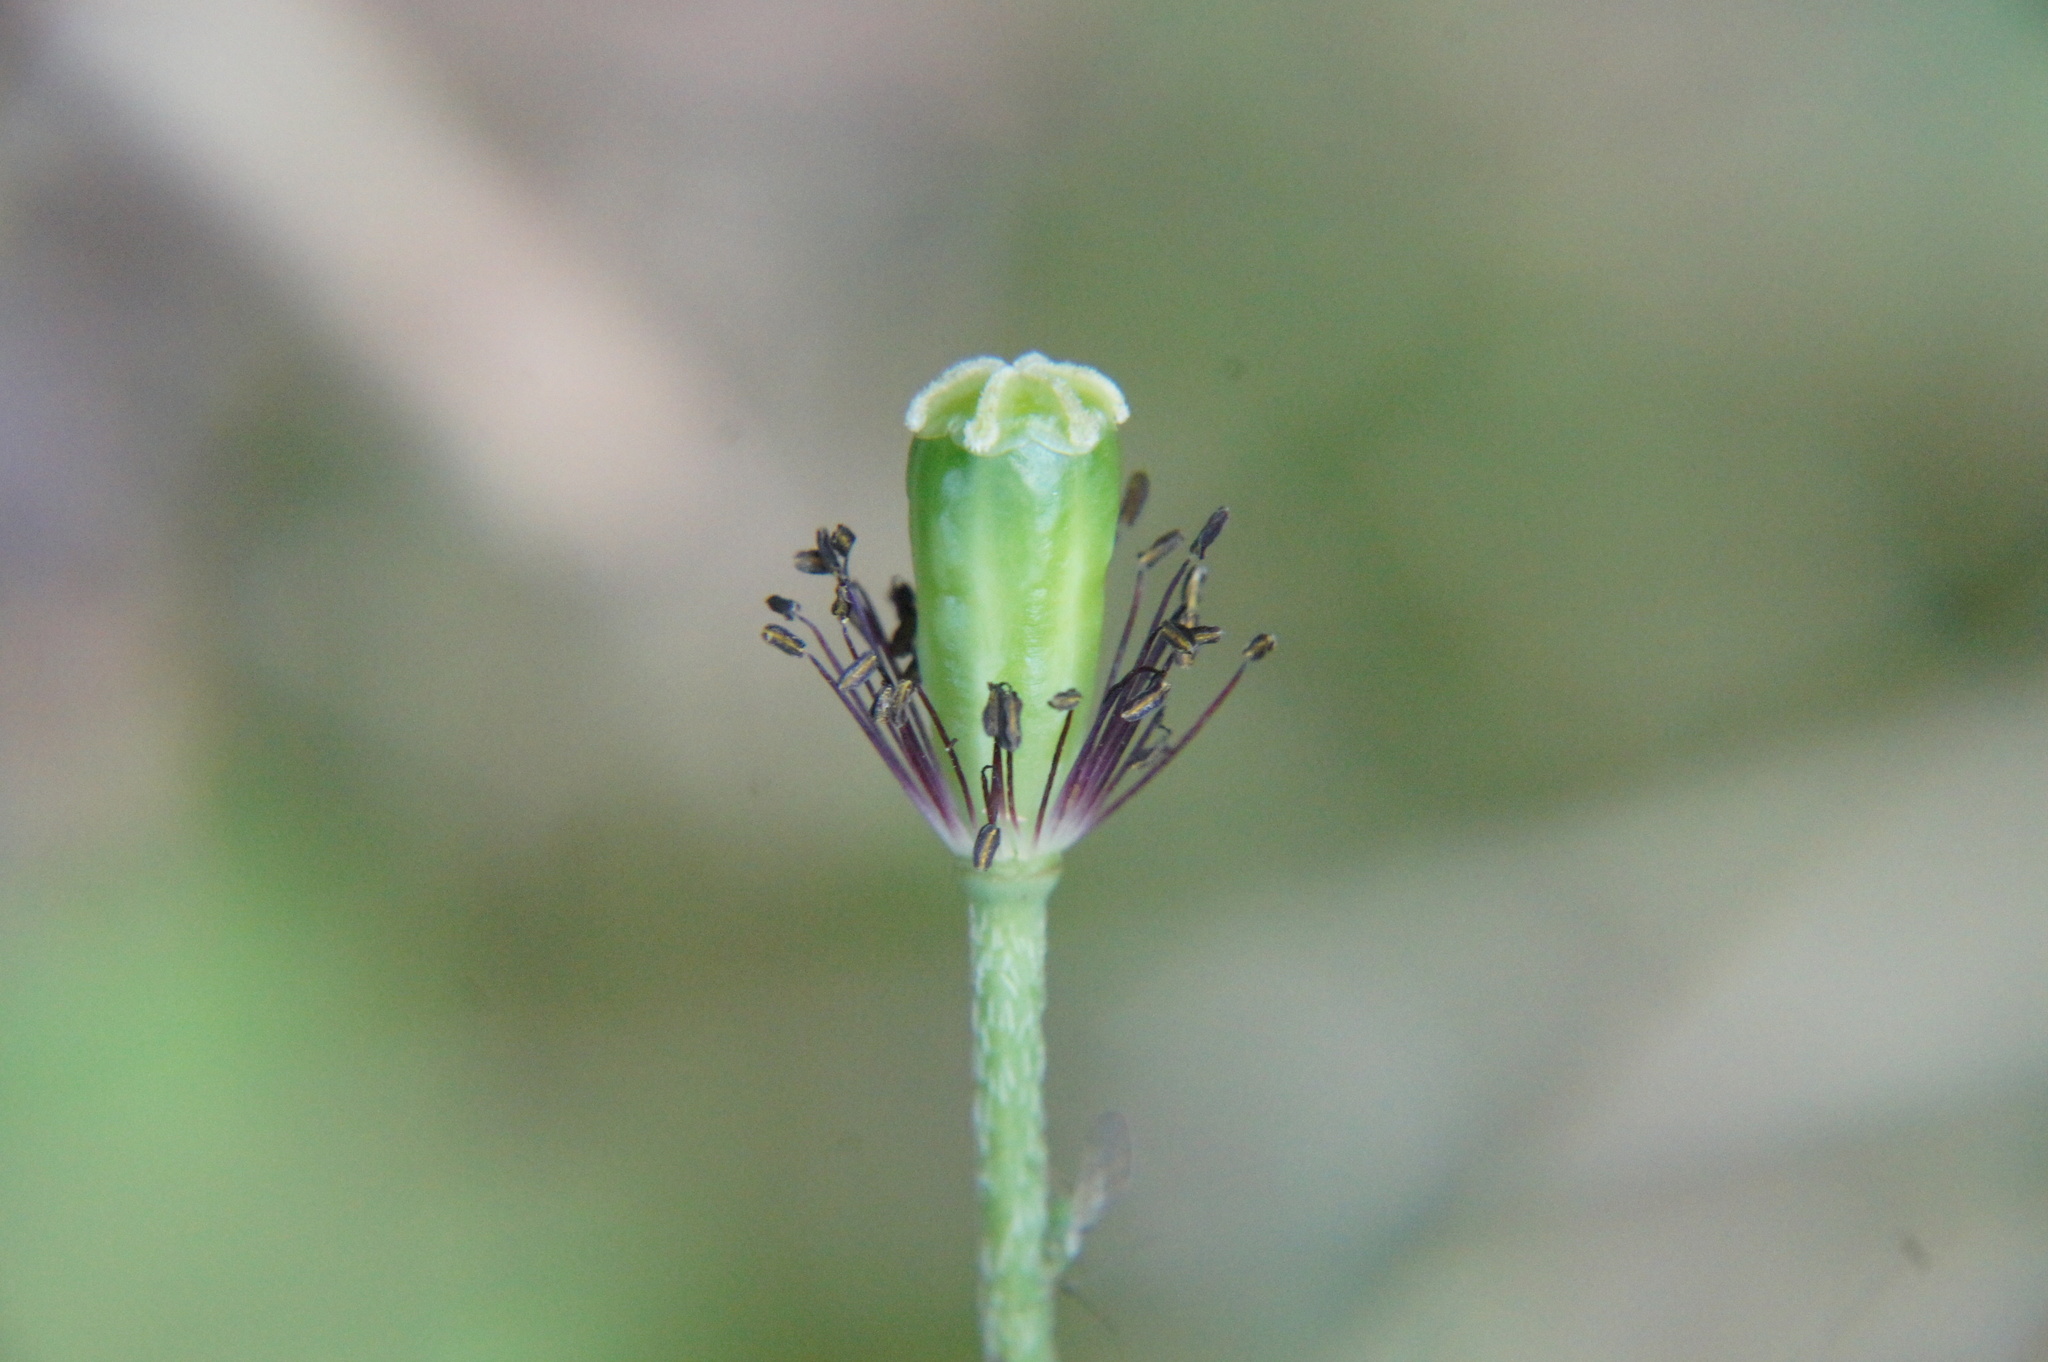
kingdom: Plantae
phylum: Tracheophyta
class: Magnoliopsida
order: Ranunculales
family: Papaveraceae
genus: Papaver
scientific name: Papaver dubium
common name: Long-headed poppy
